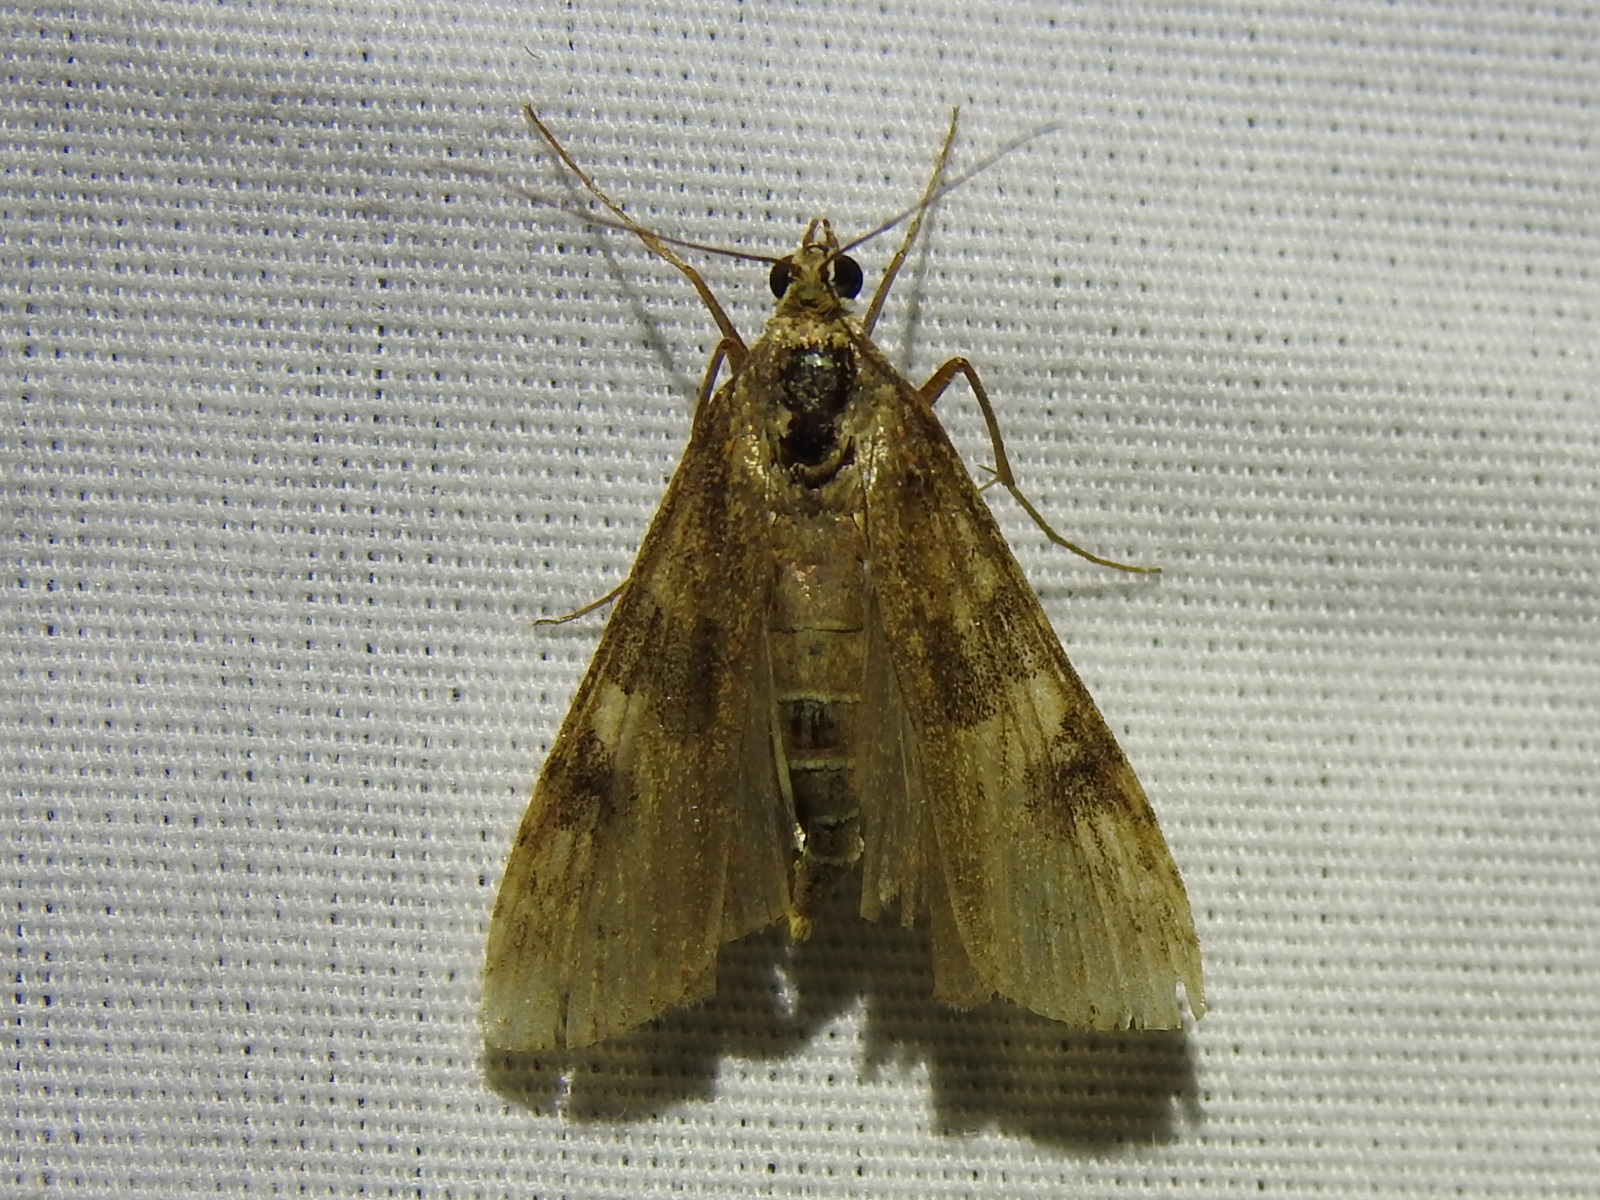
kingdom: Animalia
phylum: Arthropoda
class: Insecta
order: Lepidoptera
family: Crambidae
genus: Nomophila
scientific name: Nomophila nearctica
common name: American rush veneer
